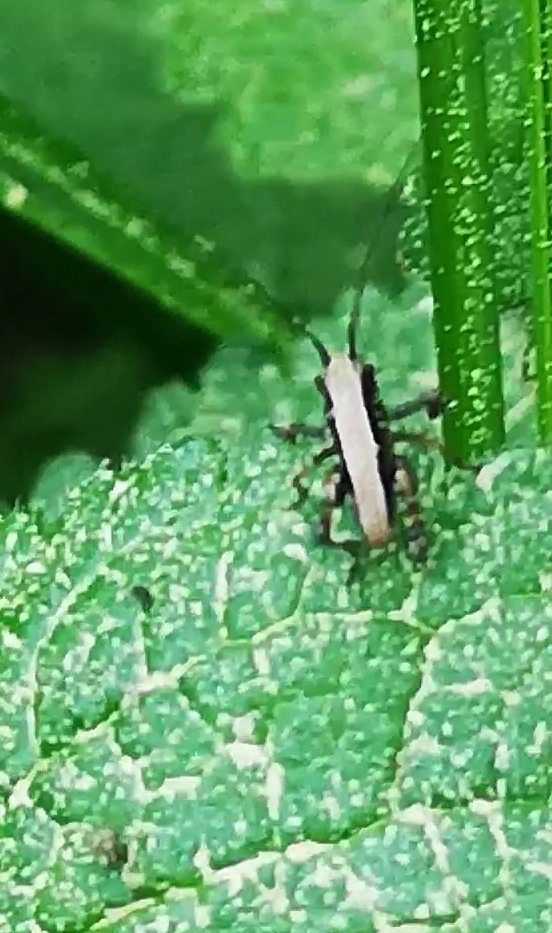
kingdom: Animalia
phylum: Arthropoda
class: Insecta
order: Orthoptera
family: Tettigoniidae
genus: Pholidoptera
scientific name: Pholidoptera griseoaptera
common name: Dark bush-cricket
